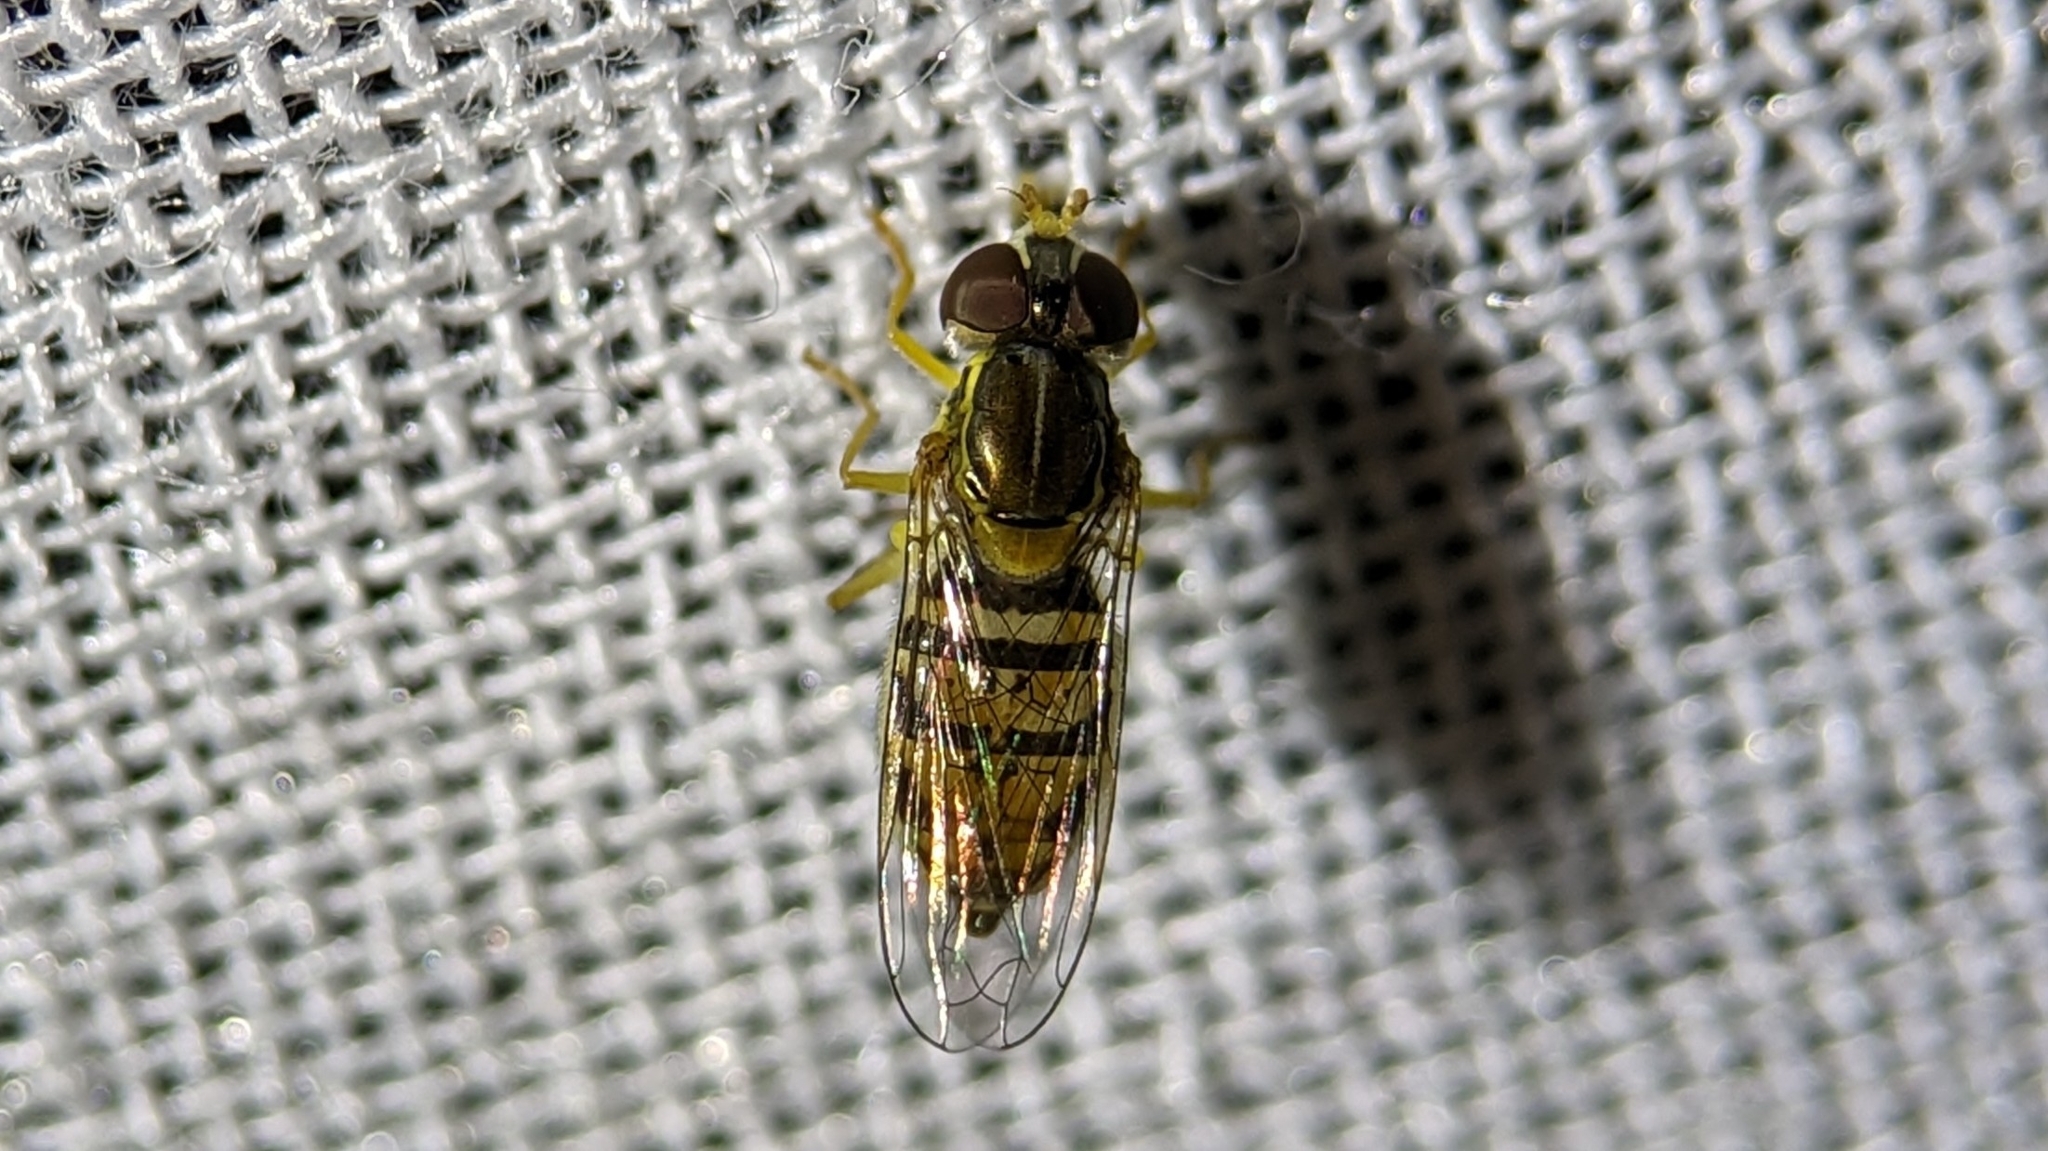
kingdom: Animalia
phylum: Arthropoda
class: Insecta
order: Diptera
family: Syrphidae
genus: Toxomerus
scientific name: Toxomerus marginatus
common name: Syrphid fly
